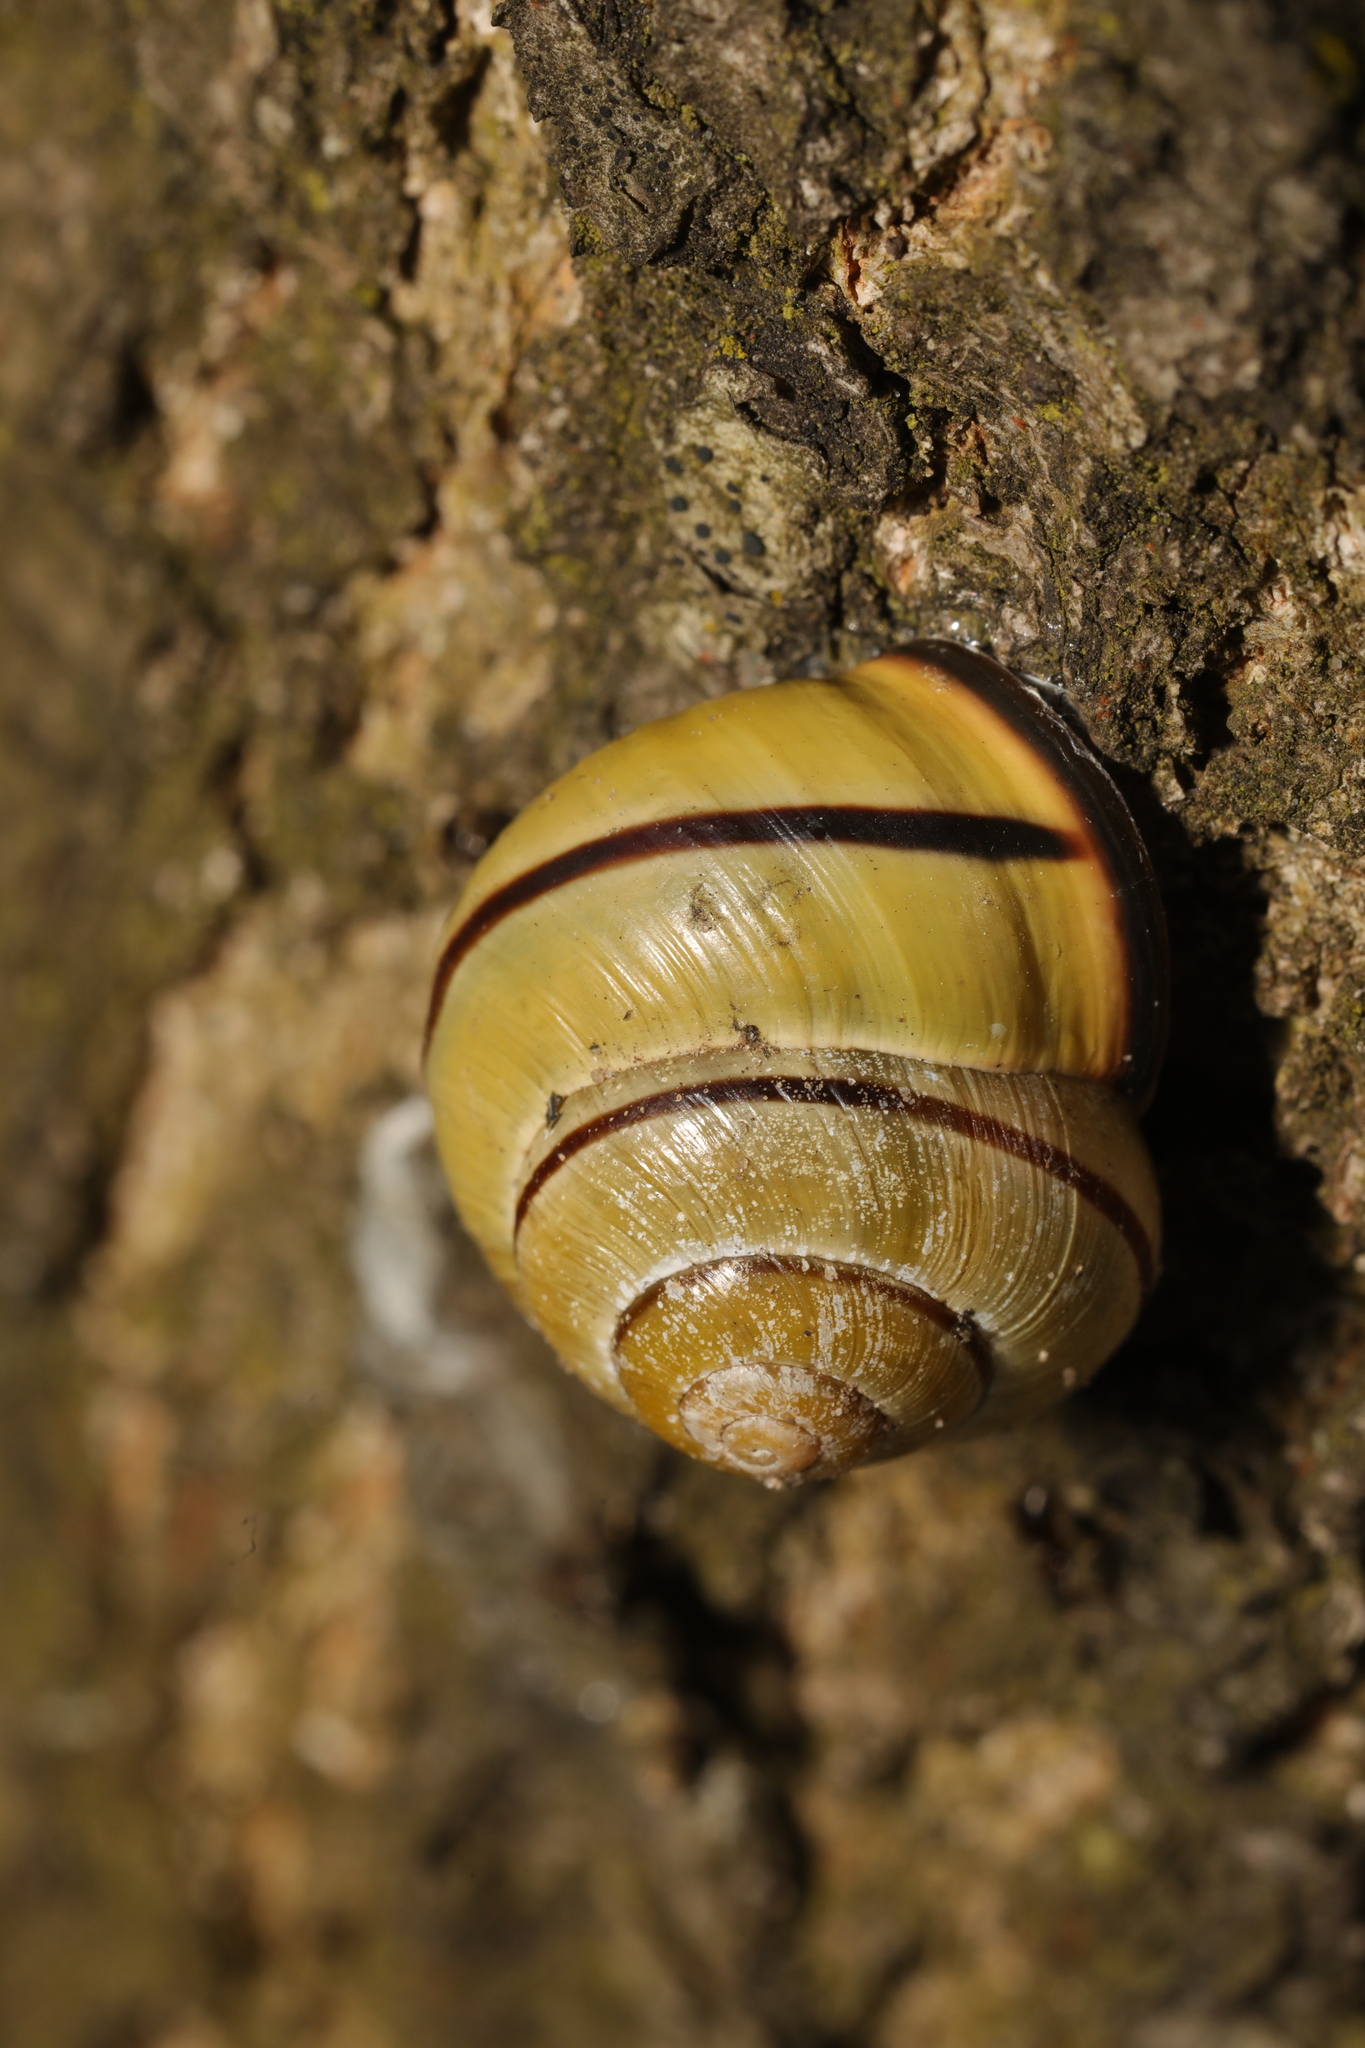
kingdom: Animalia
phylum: Mollusca
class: Gastropoda
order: Stylommatophora
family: Helicidae
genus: Cepaea
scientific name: Cepaea nemoralis
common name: Grovesnail
